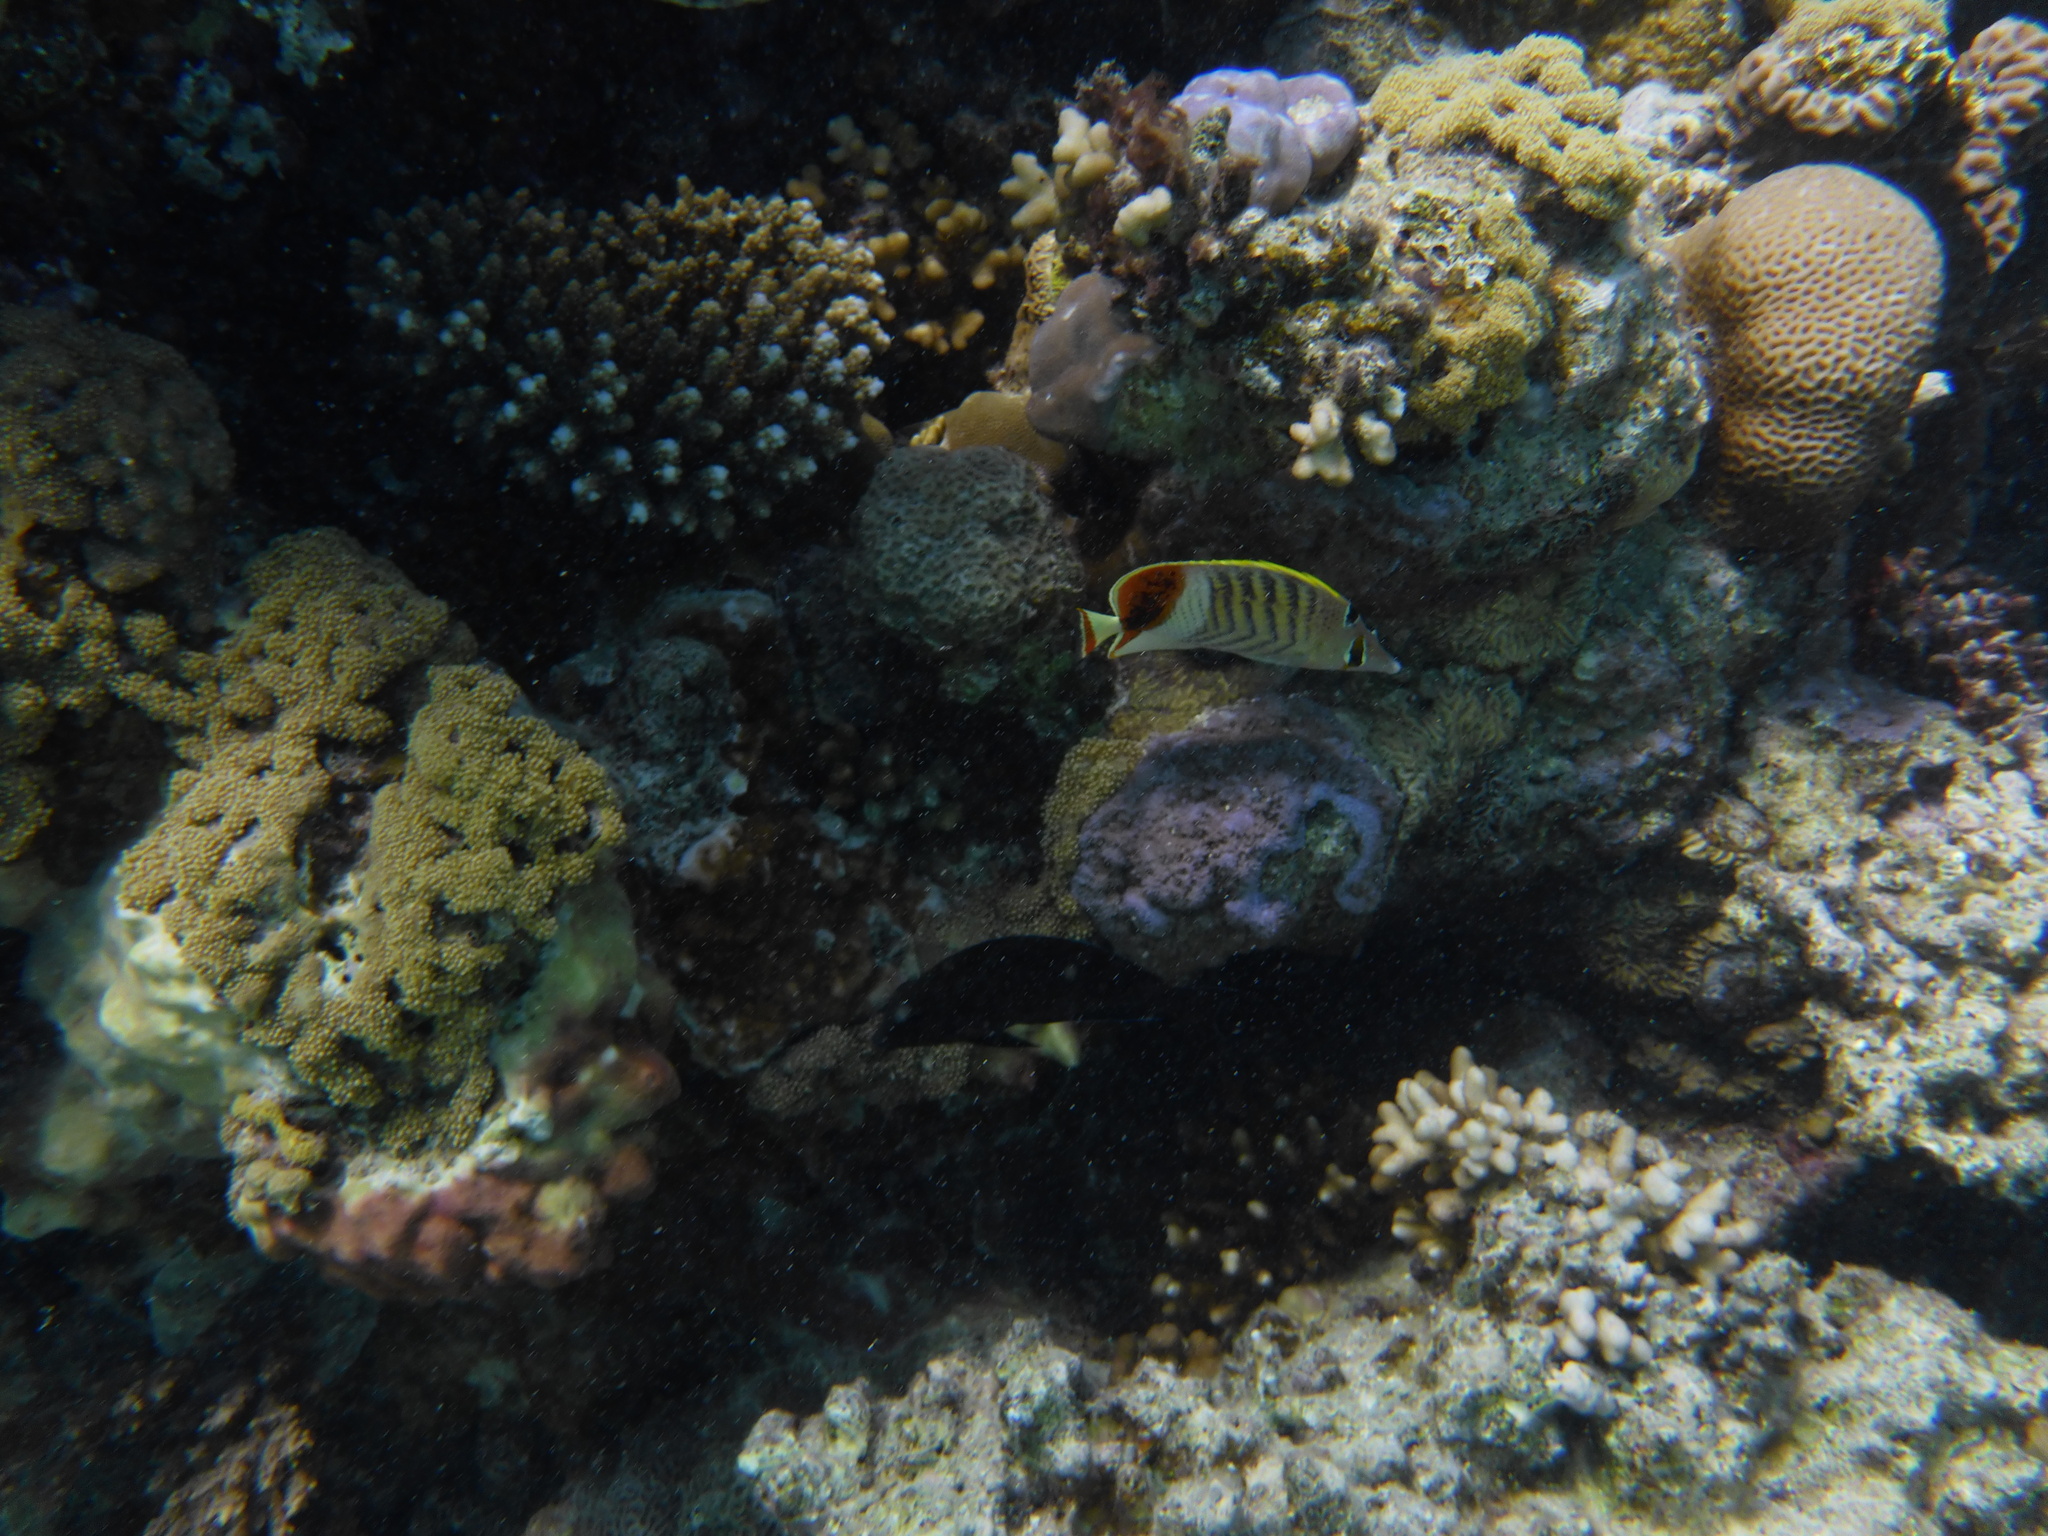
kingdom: Animalia
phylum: Chordata
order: Perciformes
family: Chaetodontidae
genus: Chaetodon
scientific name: Chaetodon paucifasciatus
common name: Crown butterflyfish
